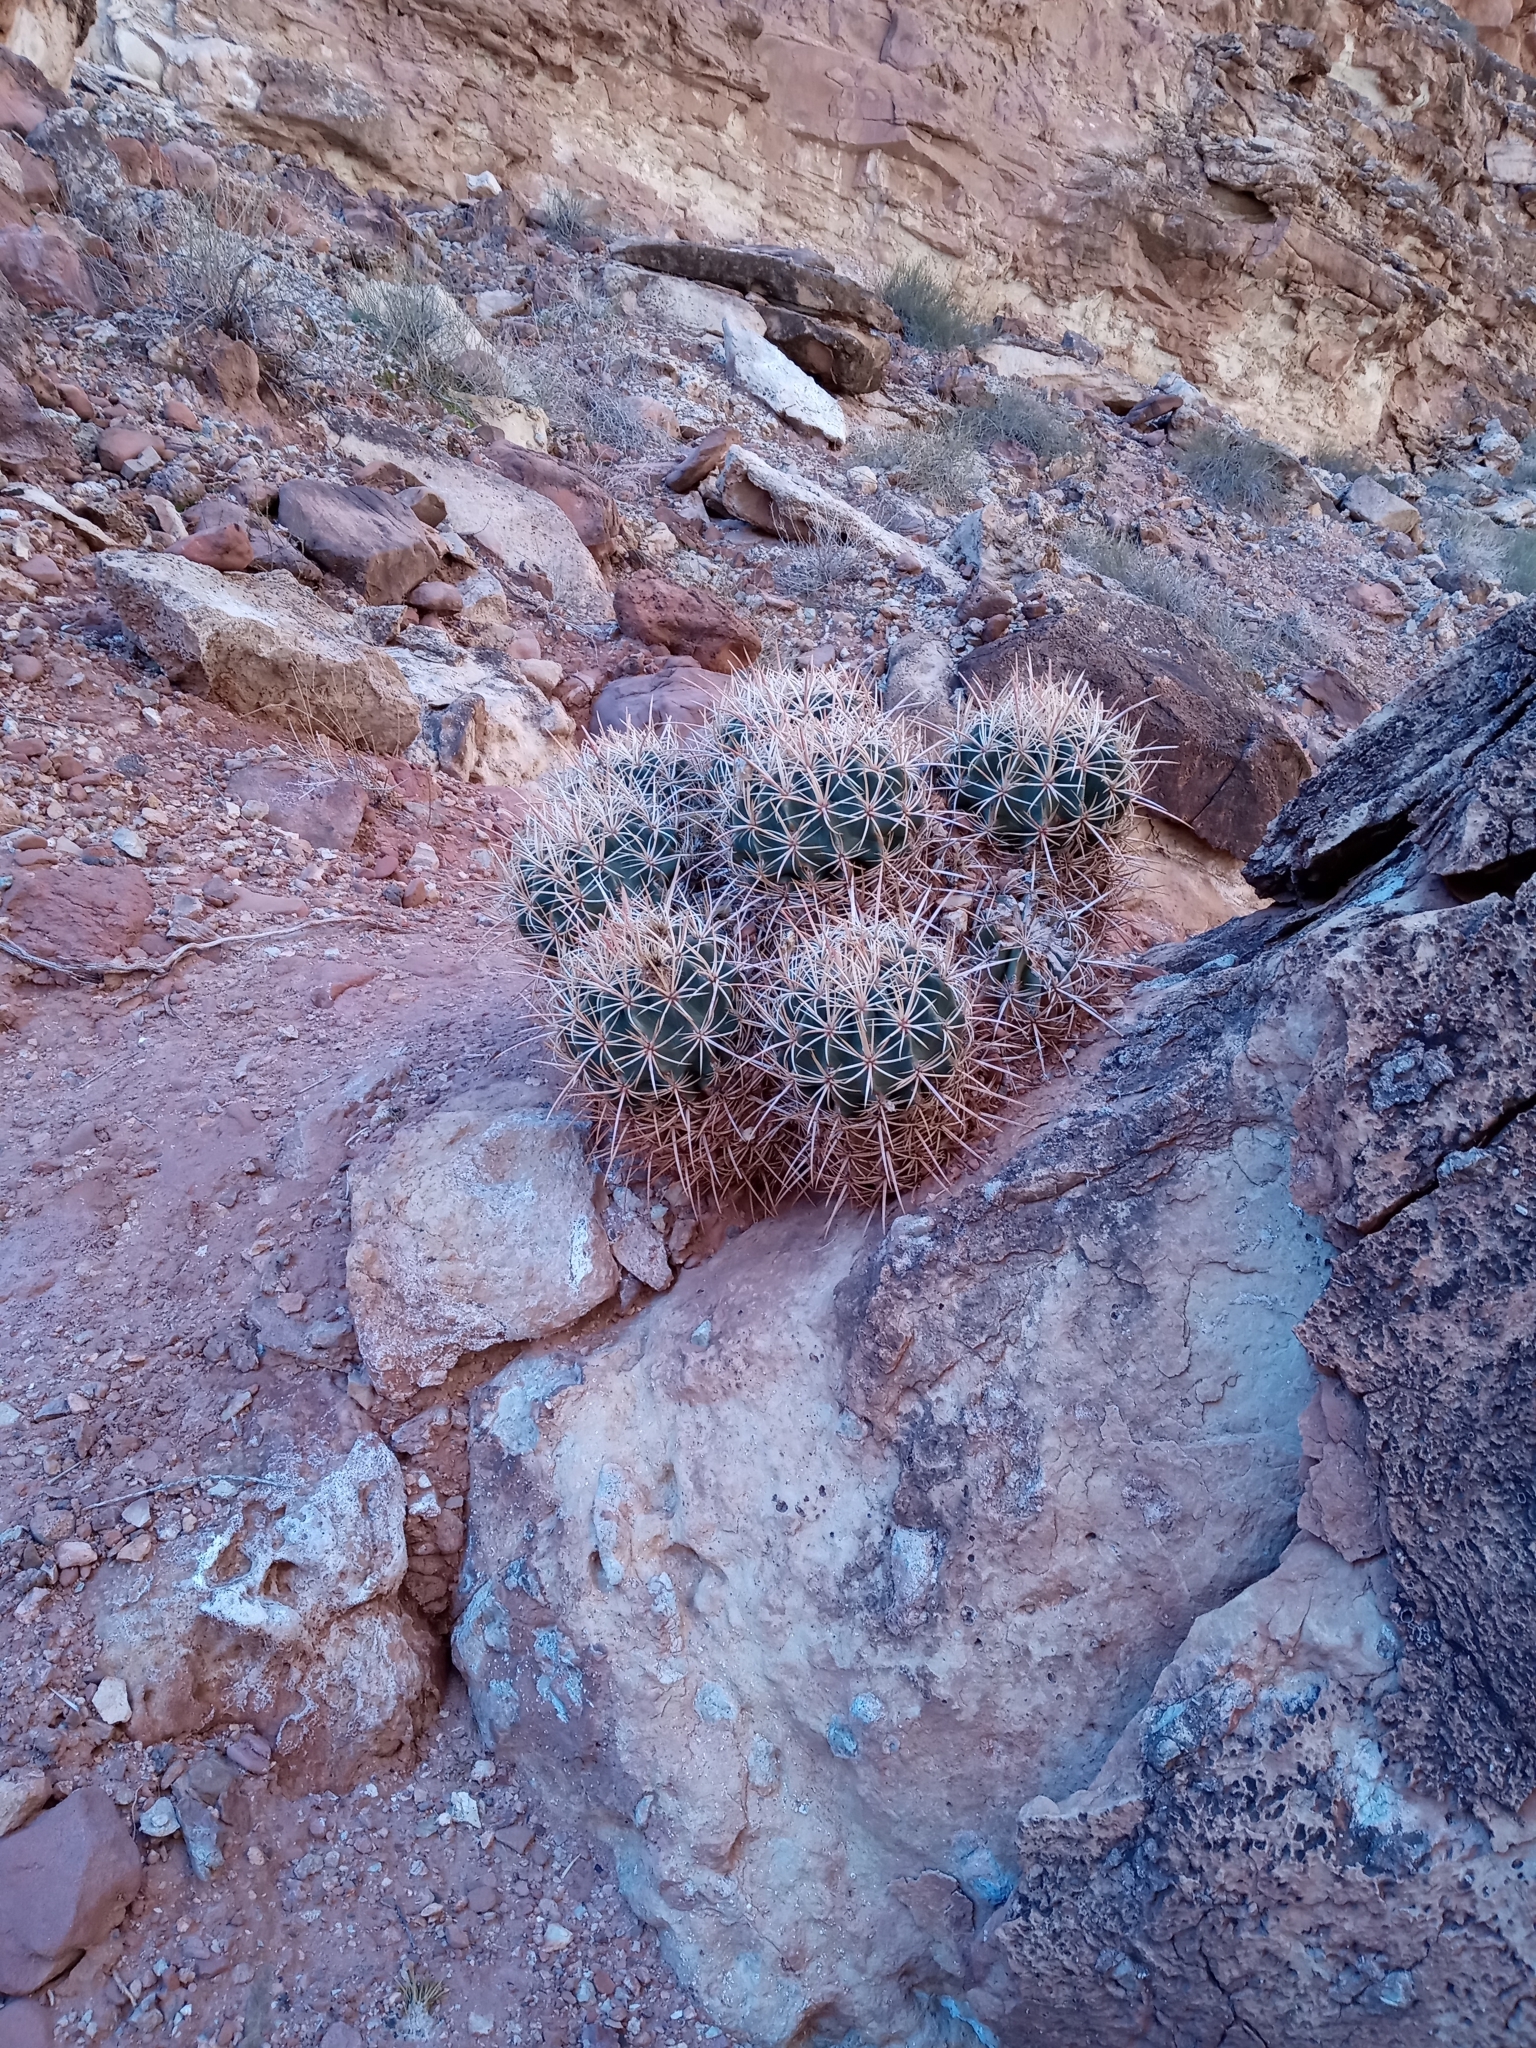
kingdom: Plantae
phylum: Tracheophyta
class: Magnoliopsida
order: Caryophyllales
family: Cactaceae
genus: Echinocactus
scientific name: Echinocactus polycephalus
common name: Cottontop cactus
